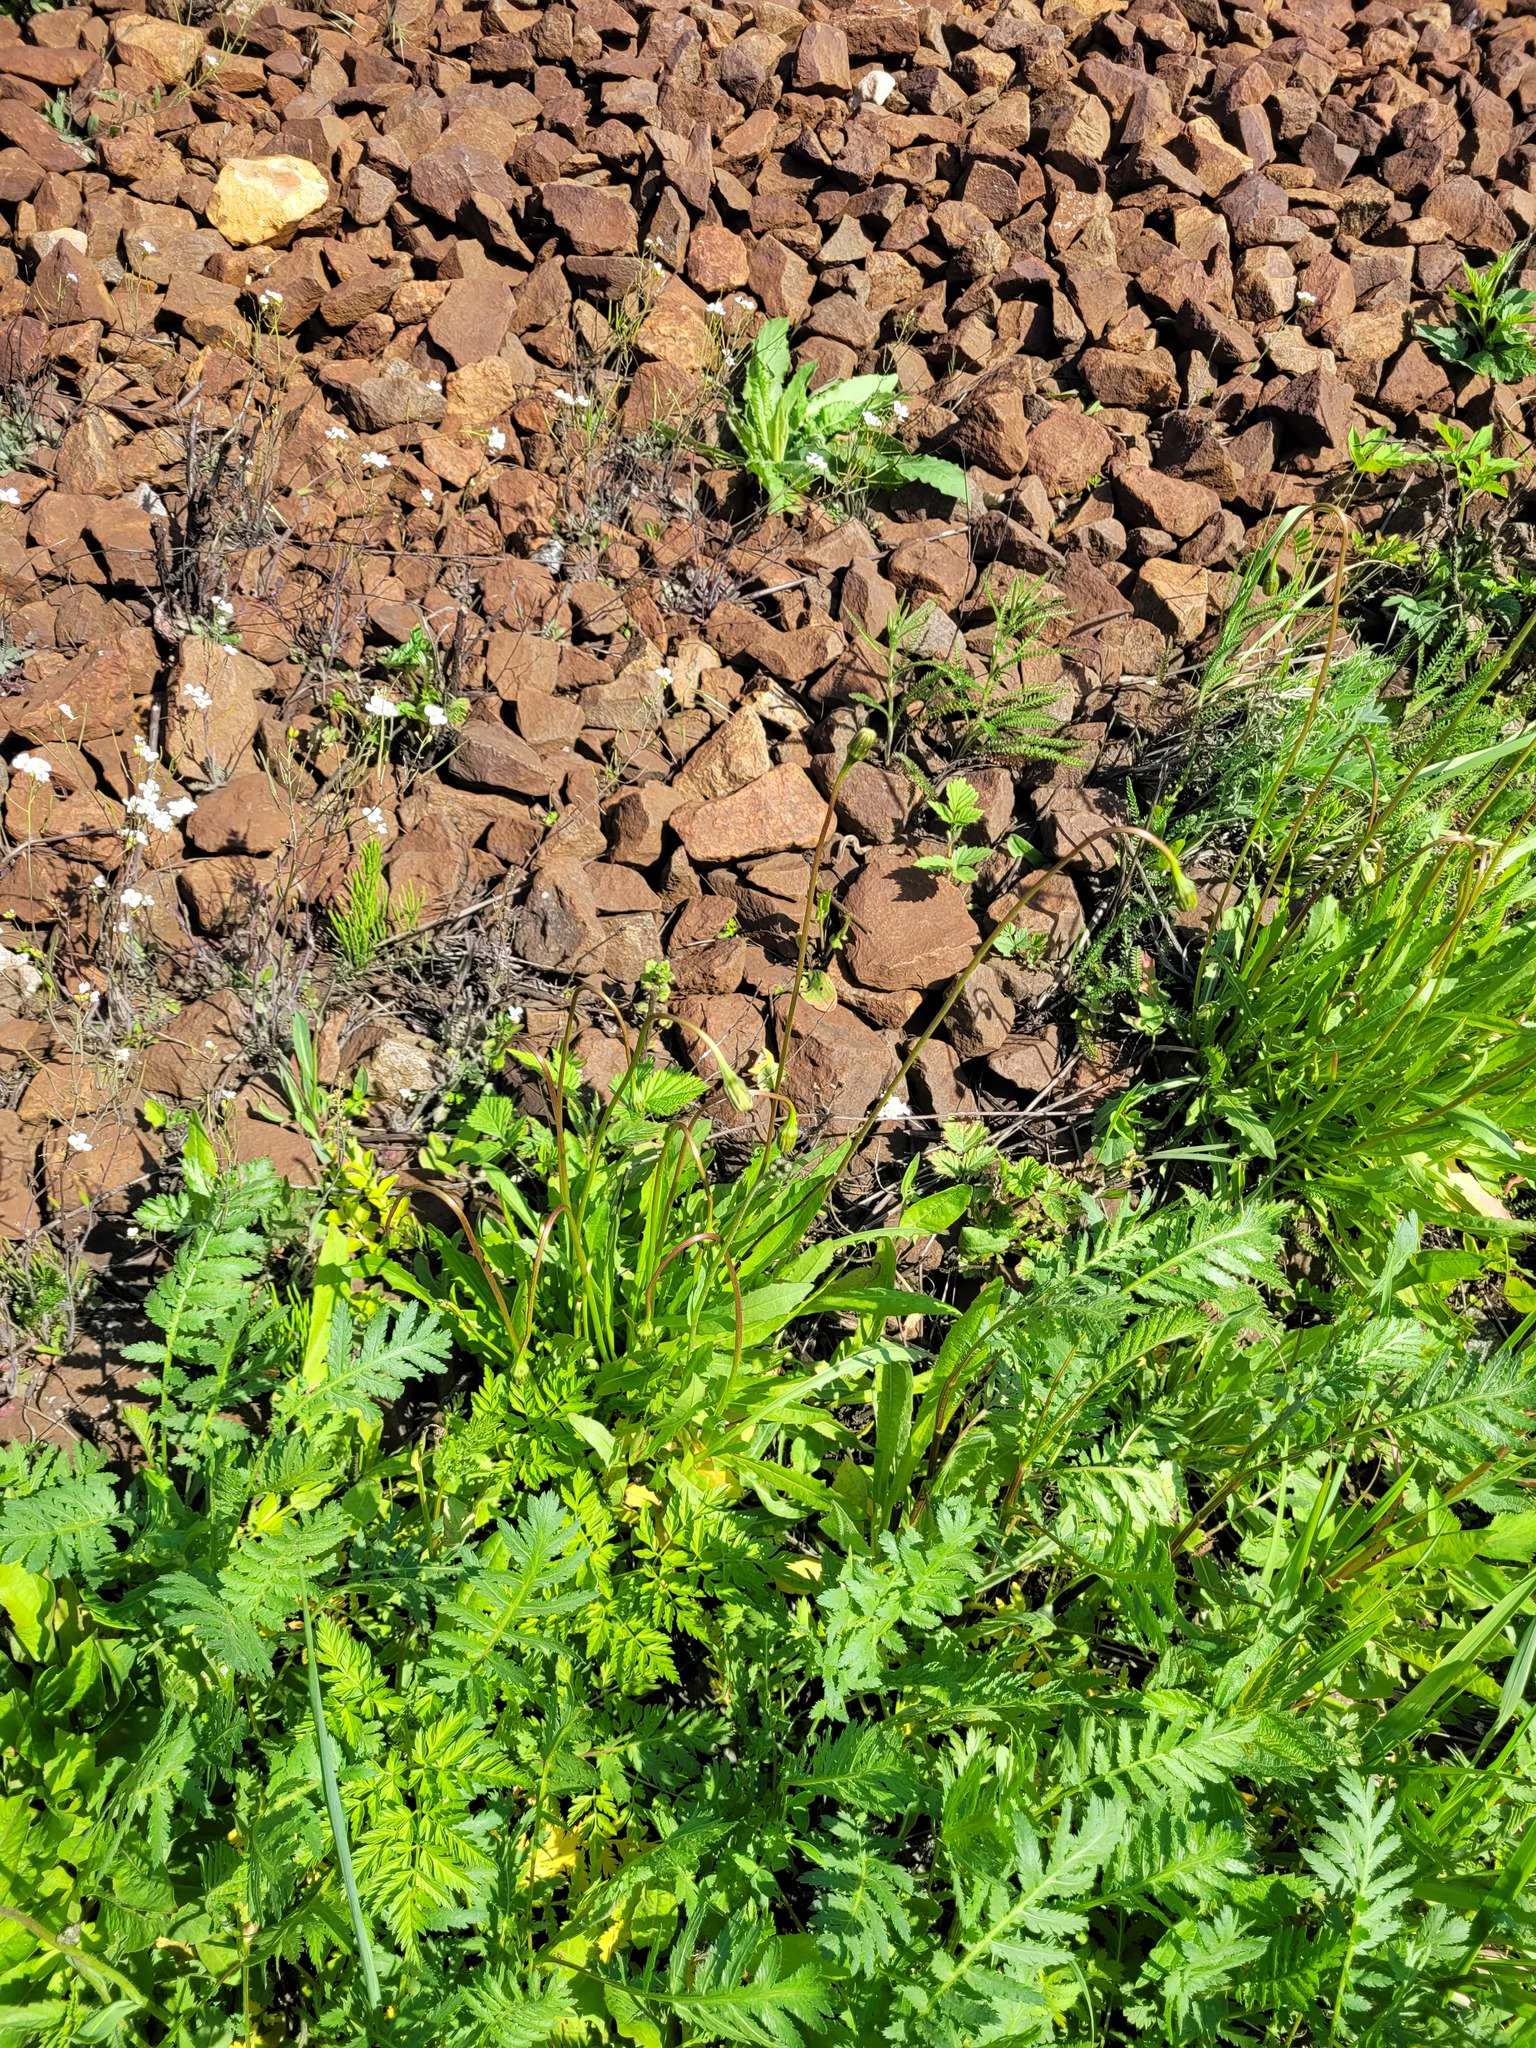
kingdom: Plantae
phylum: Tracheophyta
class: Magnoliopsida
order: Asterales
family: Asteraceae
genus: Leontodon
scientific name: Leontodon hispidus
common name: Rough hawkbit
